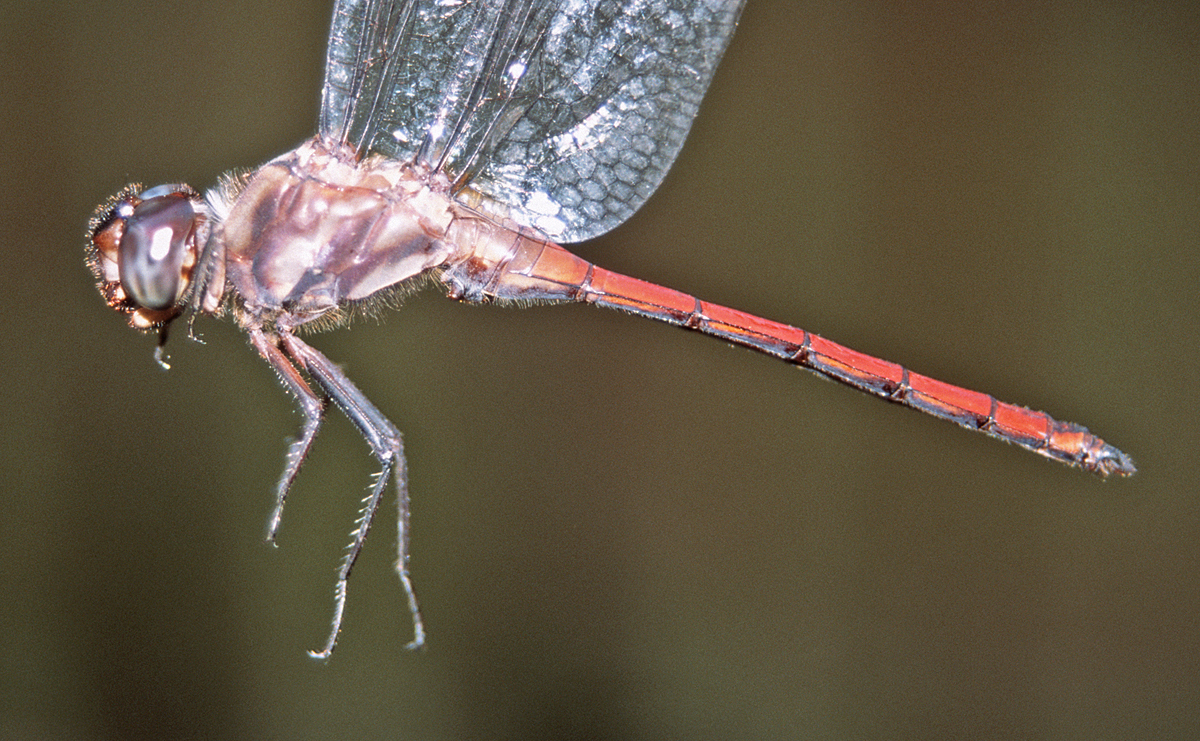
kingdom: Animalia
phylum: Arthropoda
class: Insecta
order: Odonata
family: Libellulidae
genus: Orthemis
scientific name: Orthemis tambopatae
